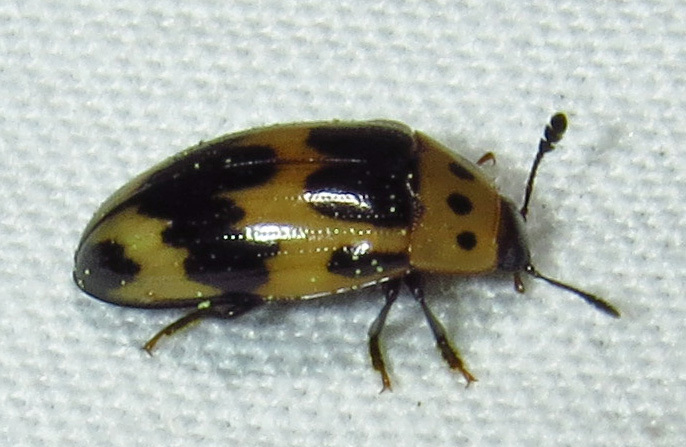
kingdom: Animalia
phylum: Arthropoda
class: Insecta
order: Coleoptera
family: Erotylidae
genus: Ischyrus
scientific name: Ischyrus quadripunctatus
